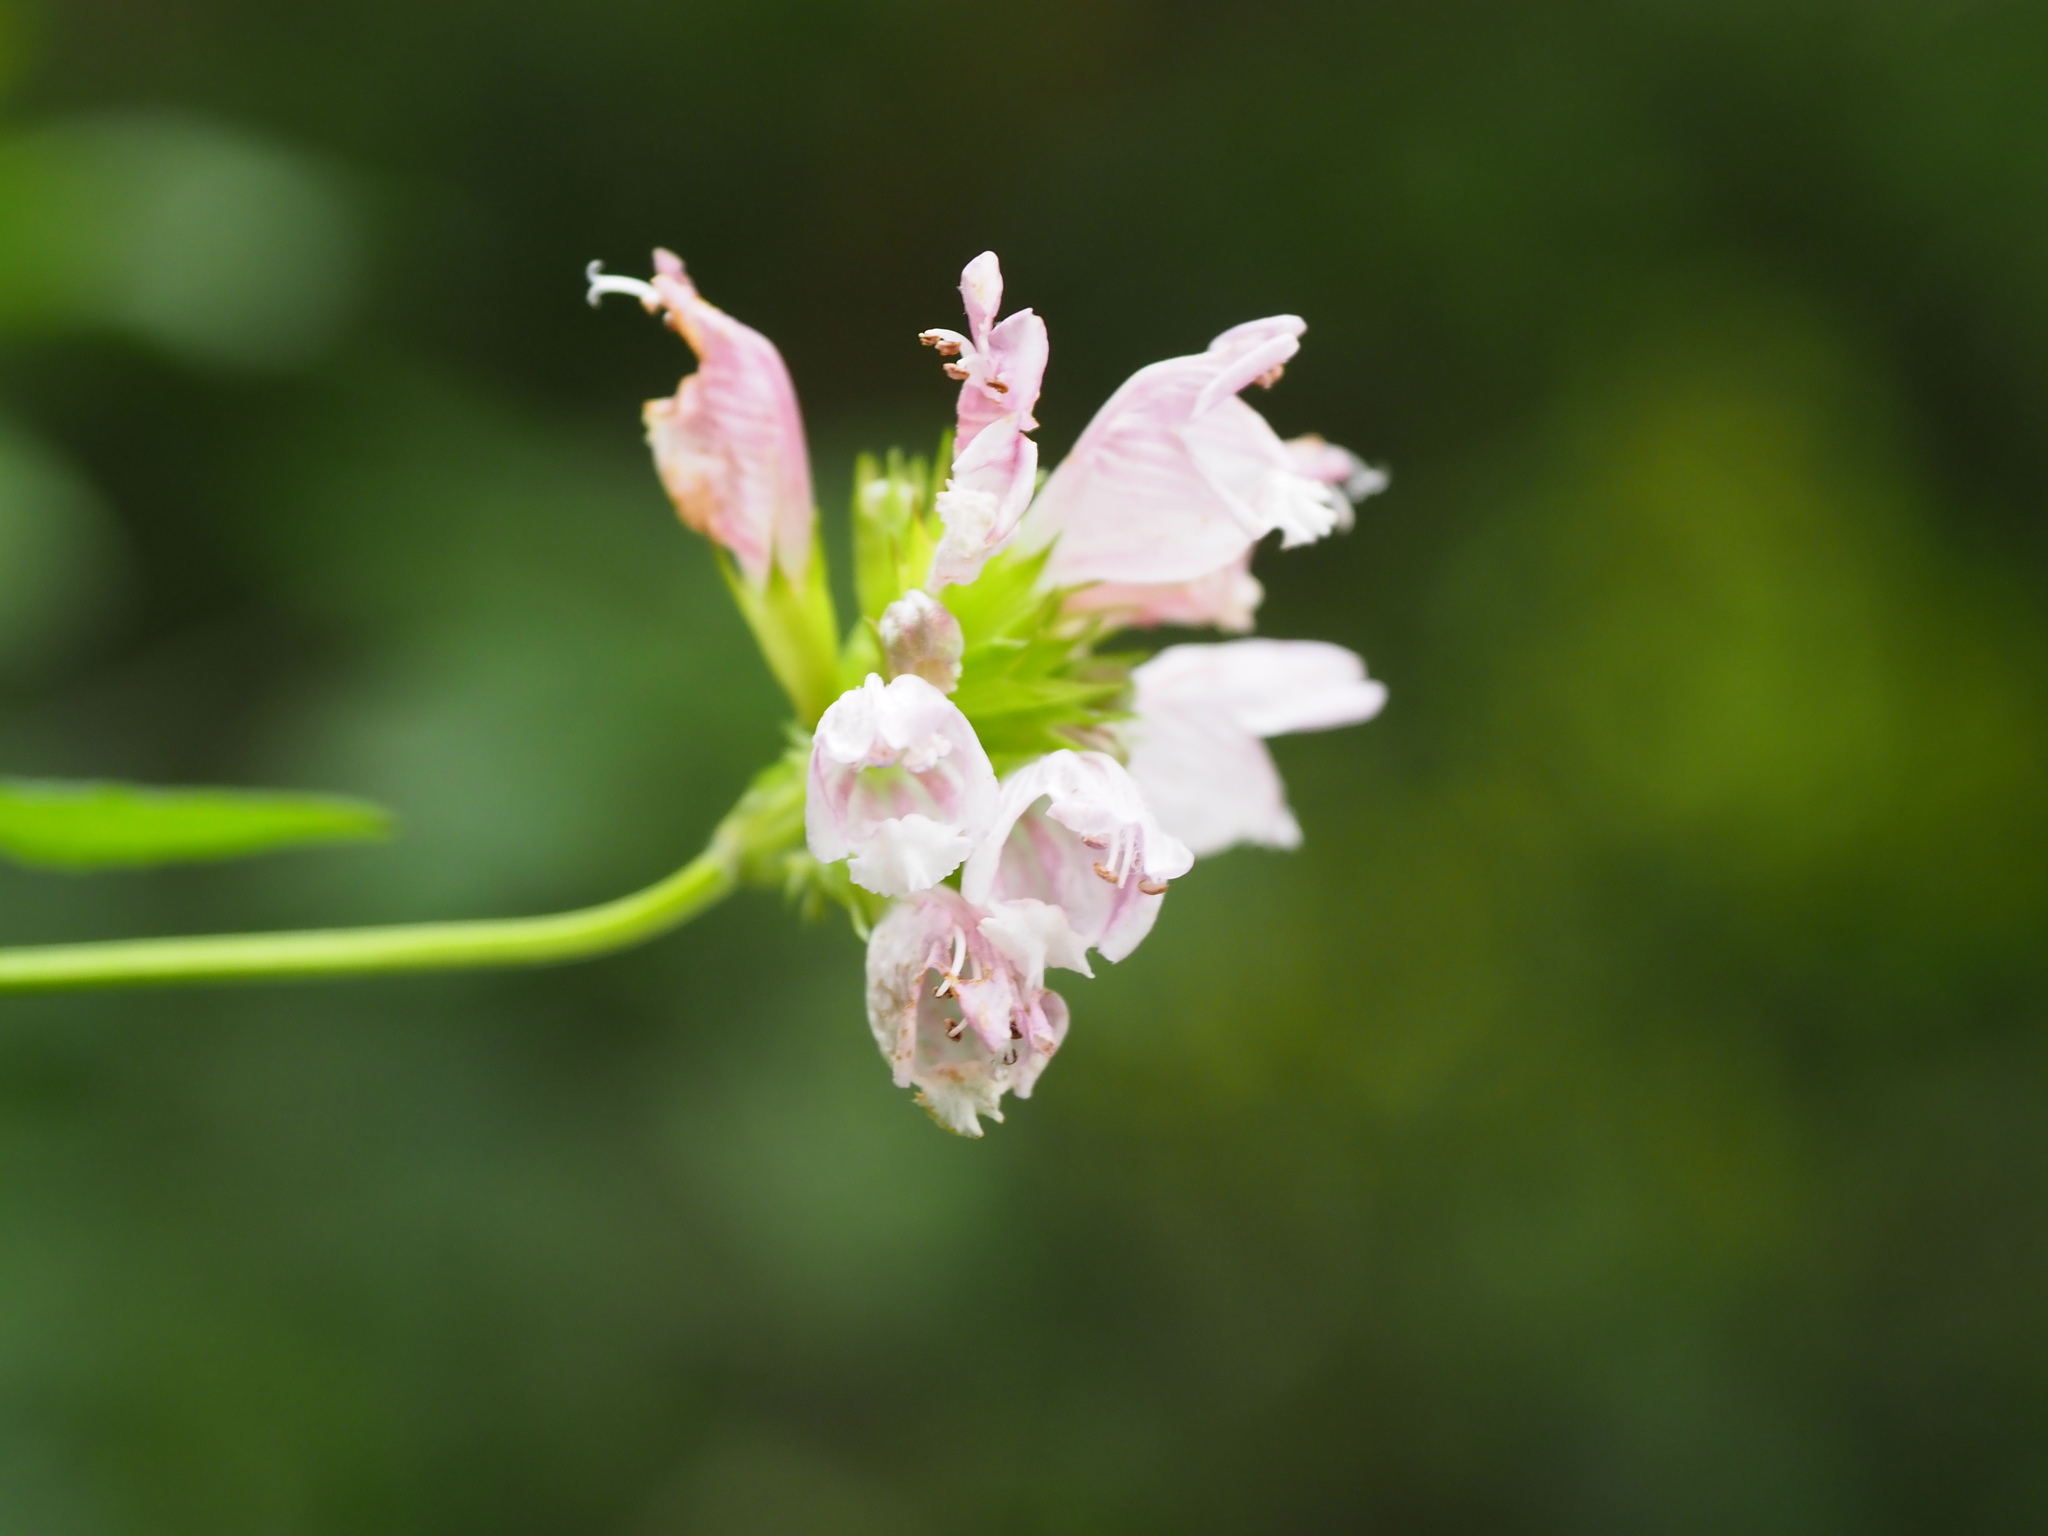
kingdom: Plantae
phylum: Tracheophyta
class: Magnoliopsida
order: Lamiales
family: Lamiaceae
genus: Cedronella
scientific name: Cedronella canariensis
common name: Canary islands balm
